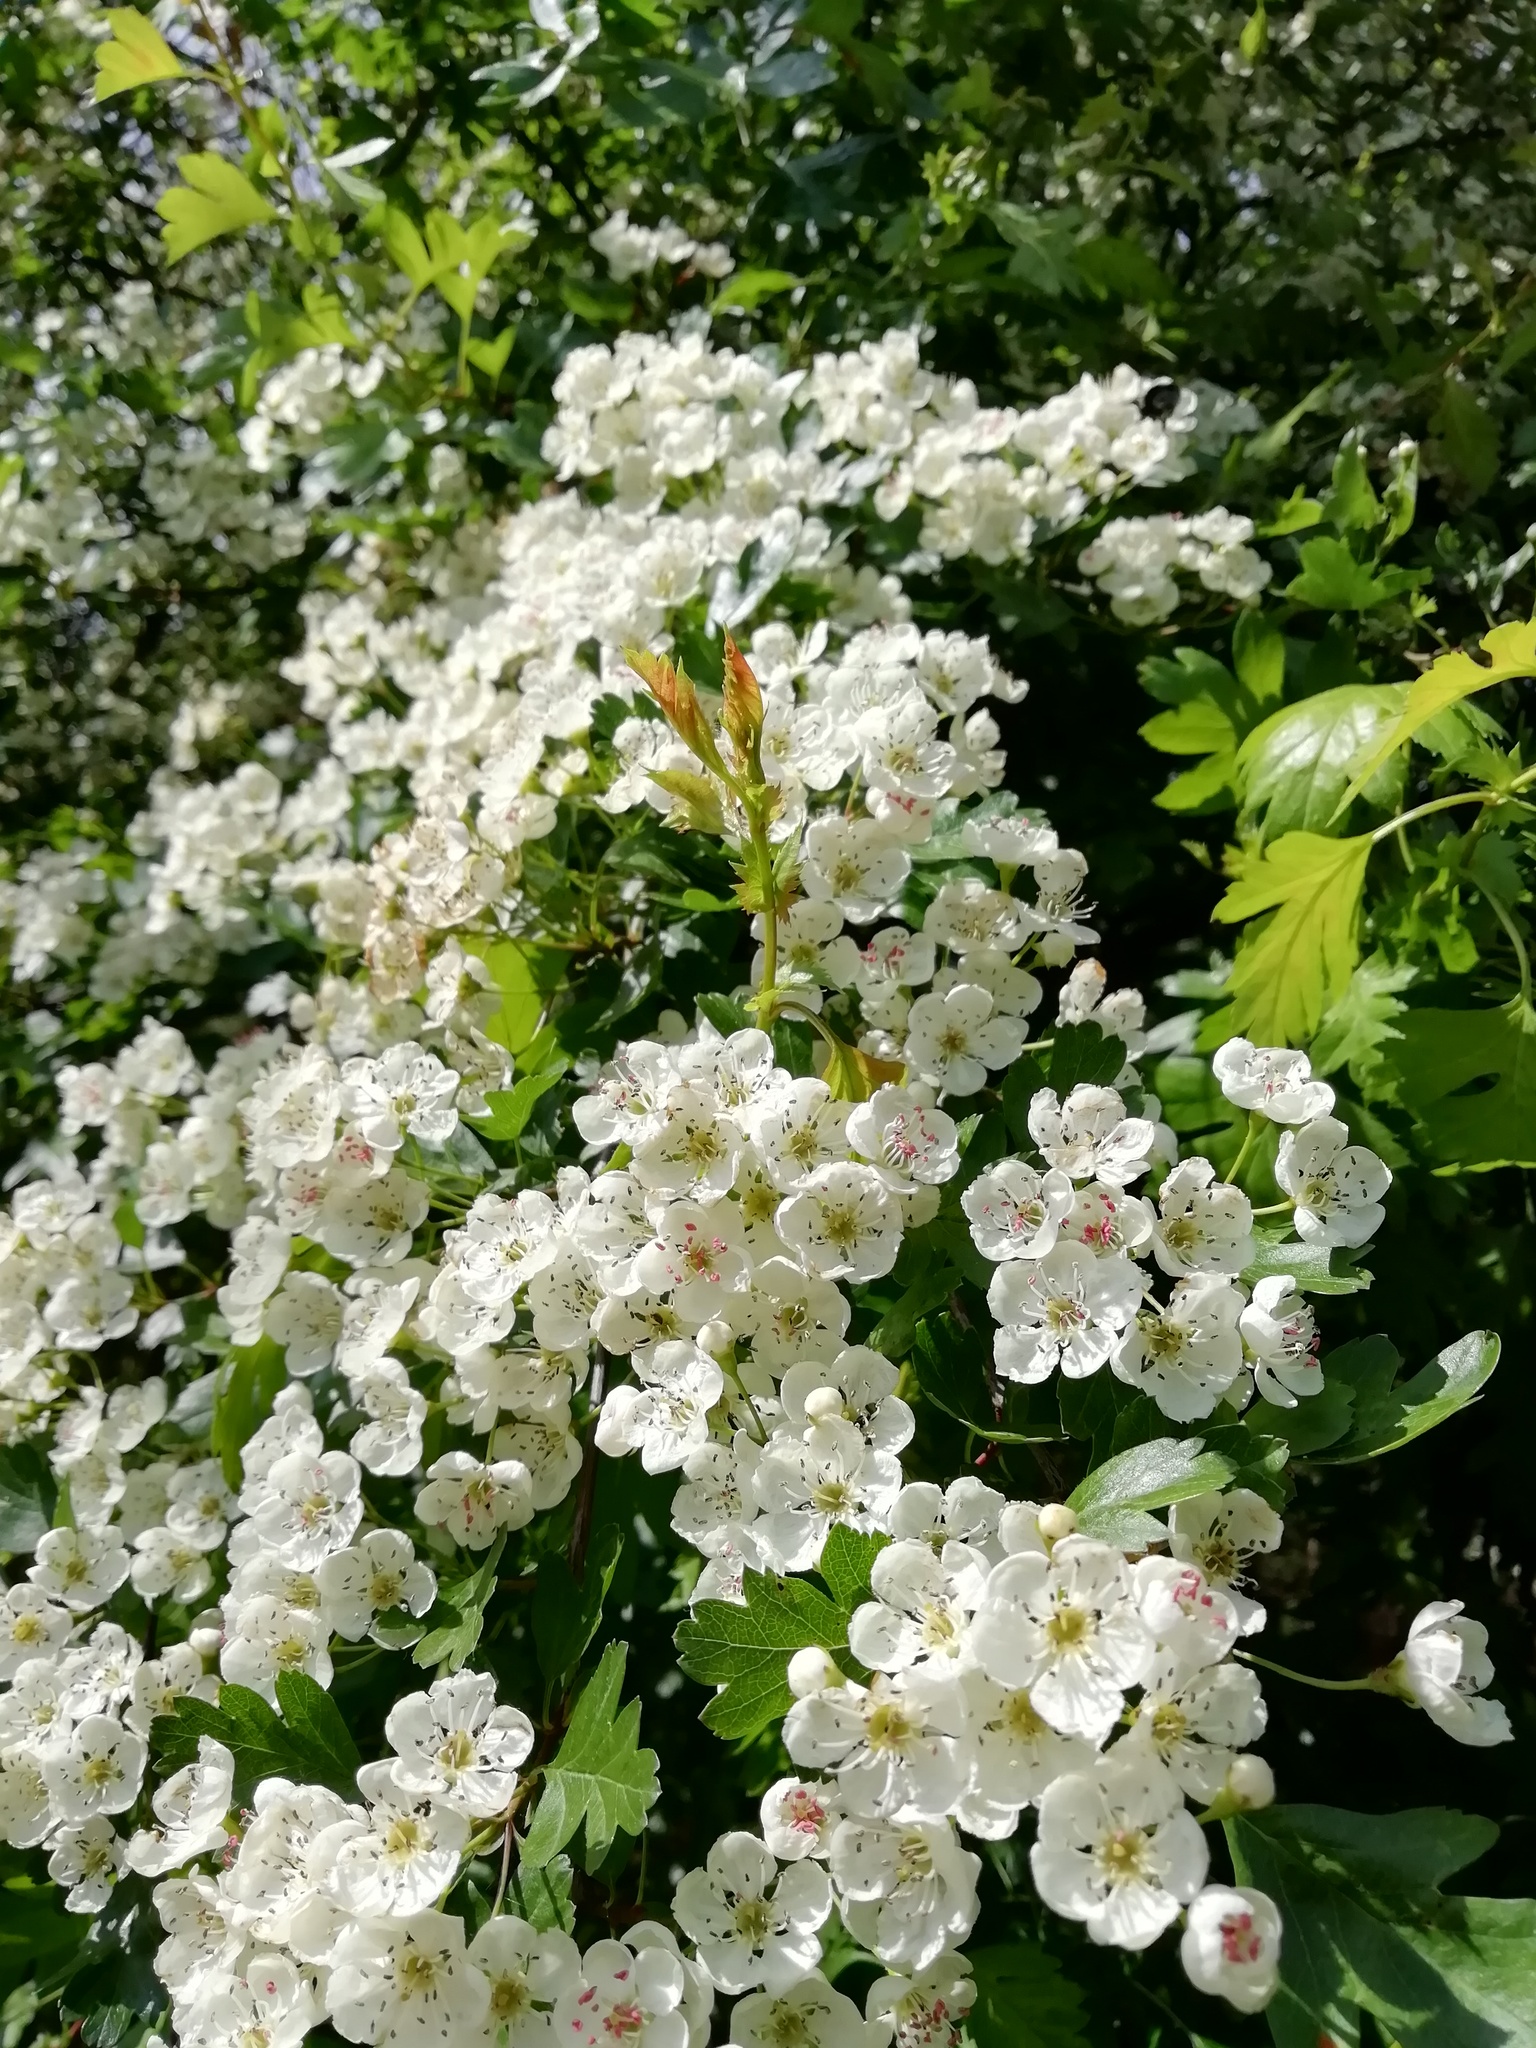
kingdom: Plantae
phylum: Tracheophyta
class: Magnoliopsida
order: Rosales
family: Rosaceae
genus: Crataegus
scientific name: Crataegus monogyna
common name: Hawthorn
